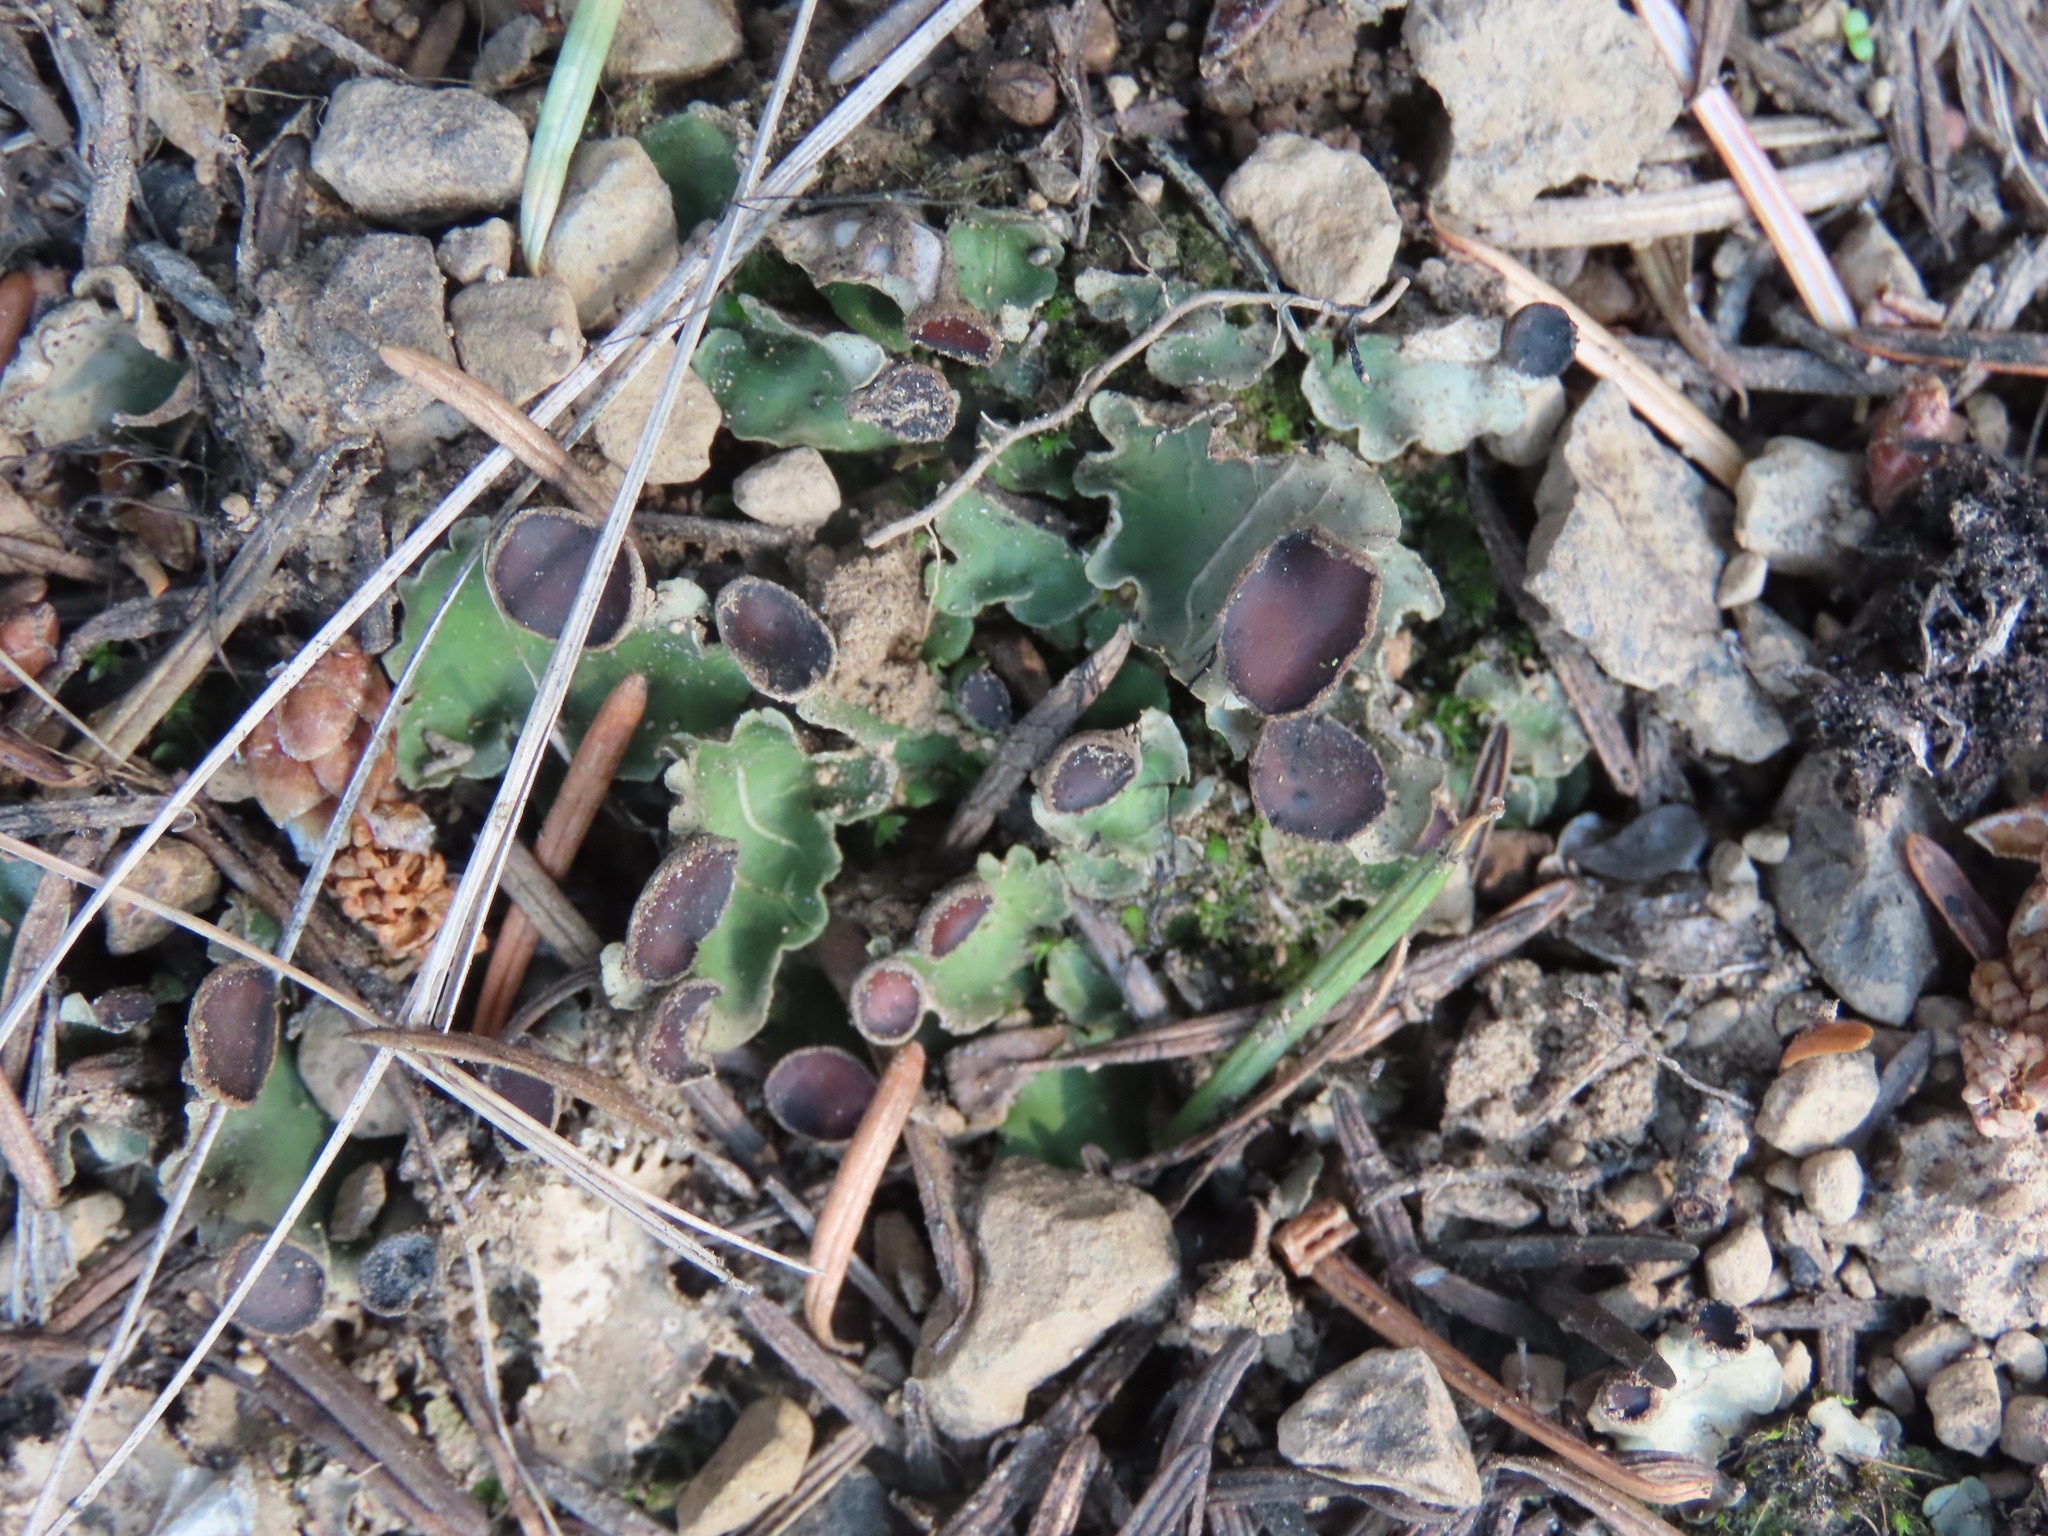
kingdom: Fungi
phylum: Ascomycota
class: Lecanoromycetes
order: Peltigerales
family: Peltigeraceae
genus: Peltigera
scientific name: Peltigera venosa
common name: Pixie gowns lichen
